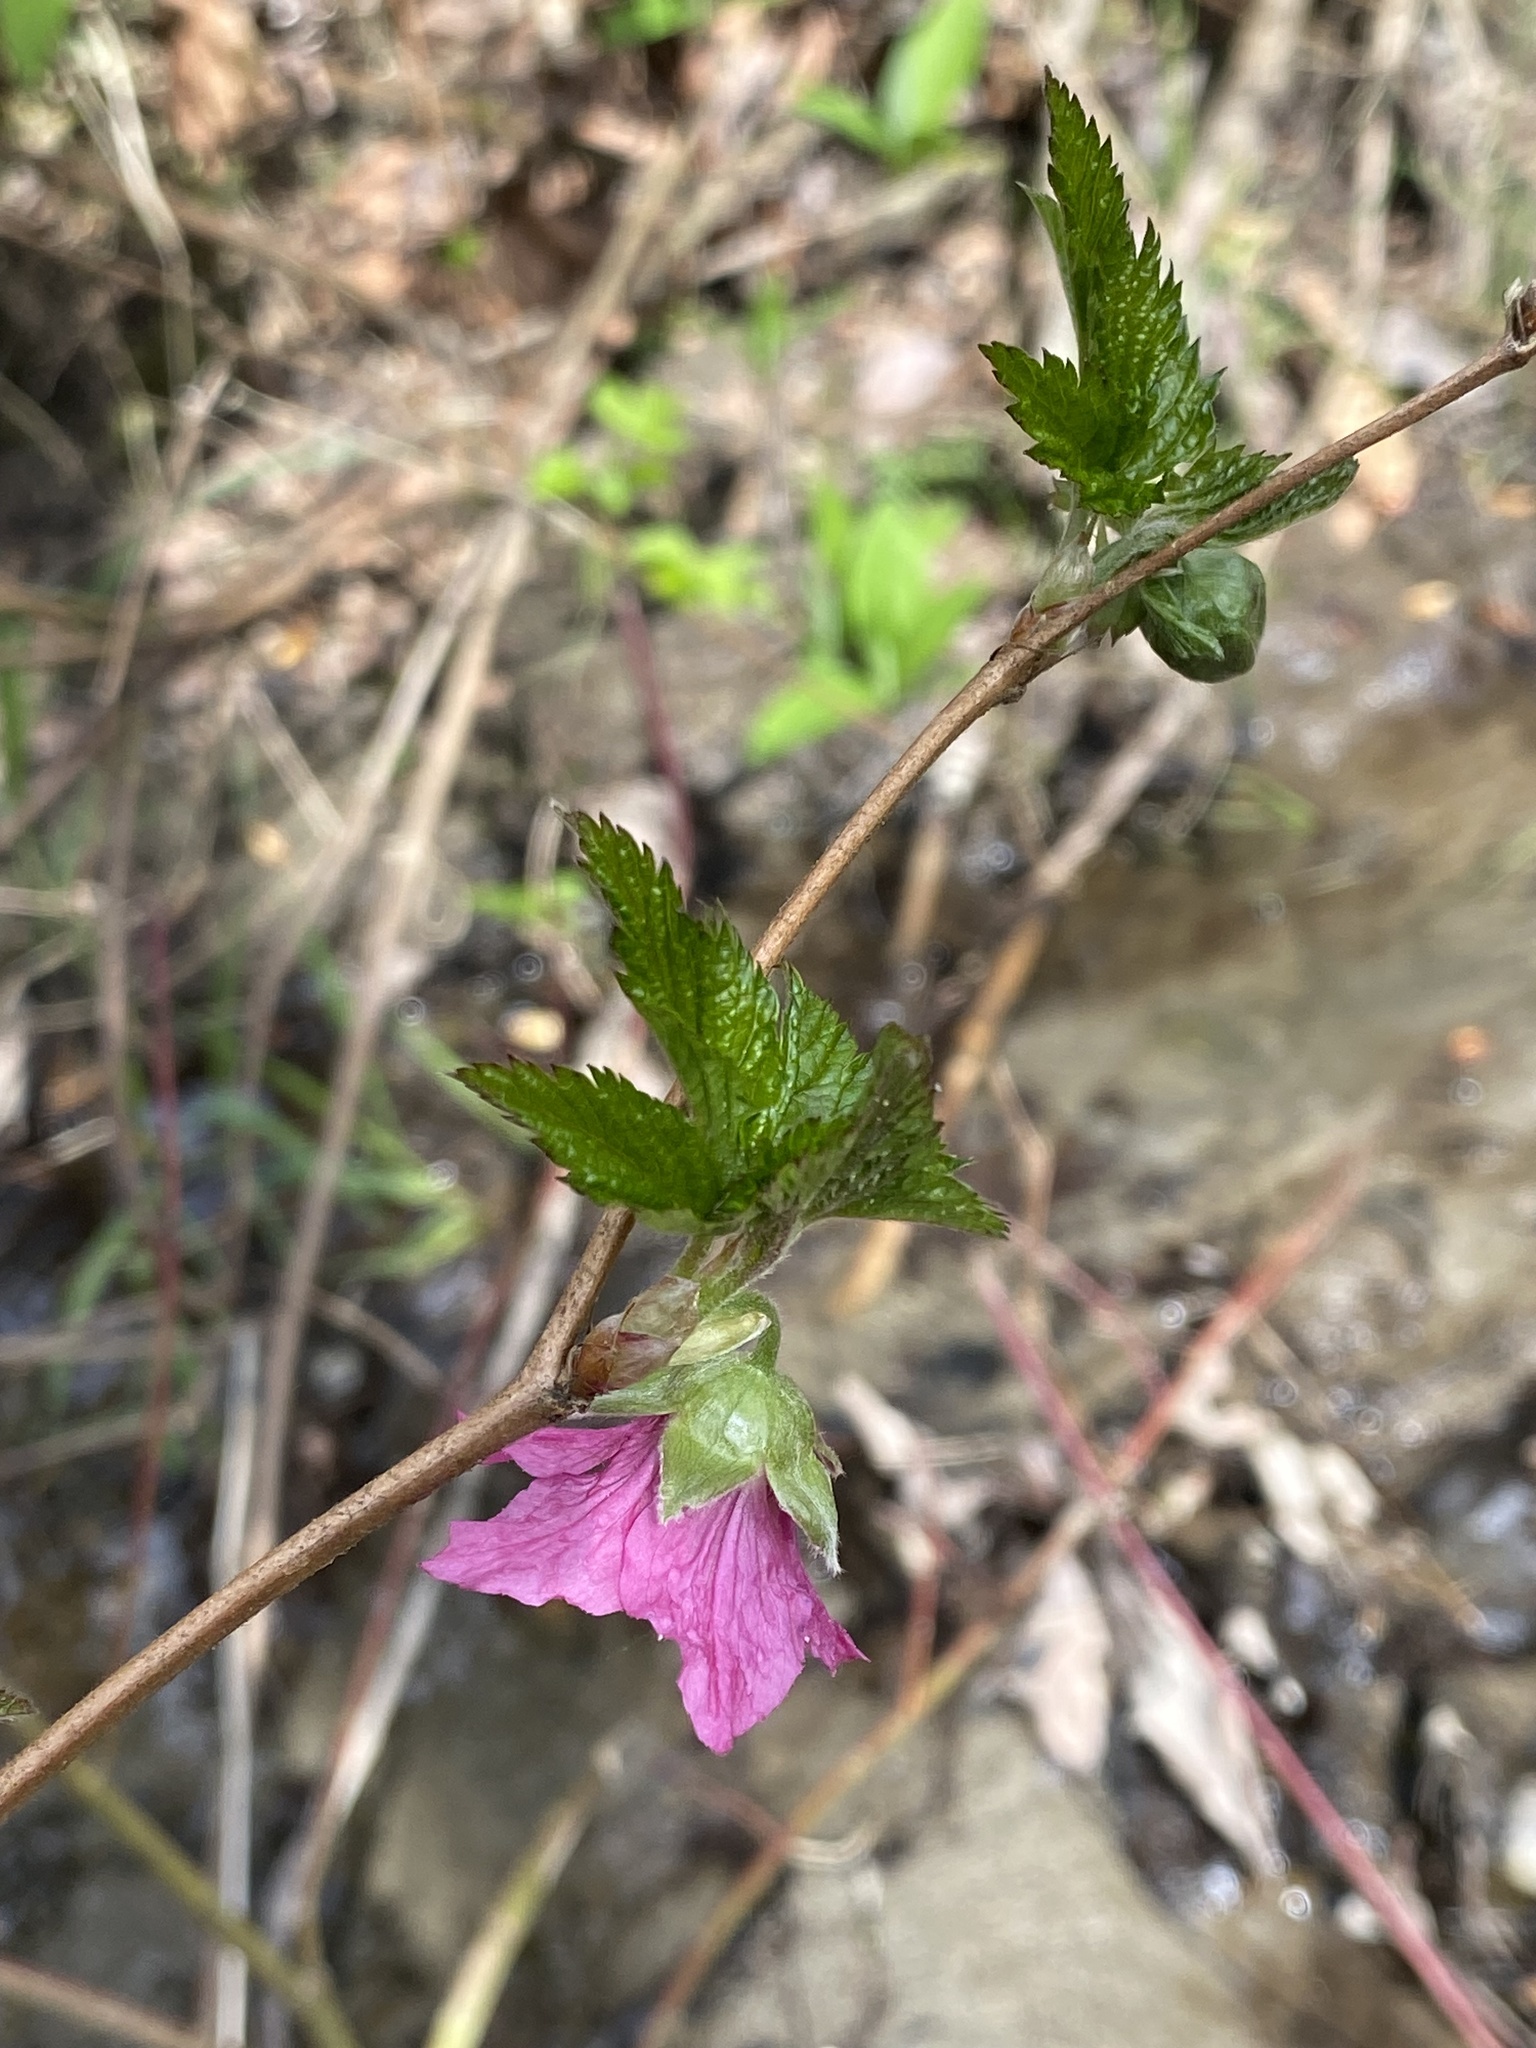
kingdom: Plantae
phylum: Tracheophyta
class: Magnoliopsida
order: Rosales
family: Rosaceae
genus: Rubus
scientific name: Rubus spectabilis
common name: Salmonberry
